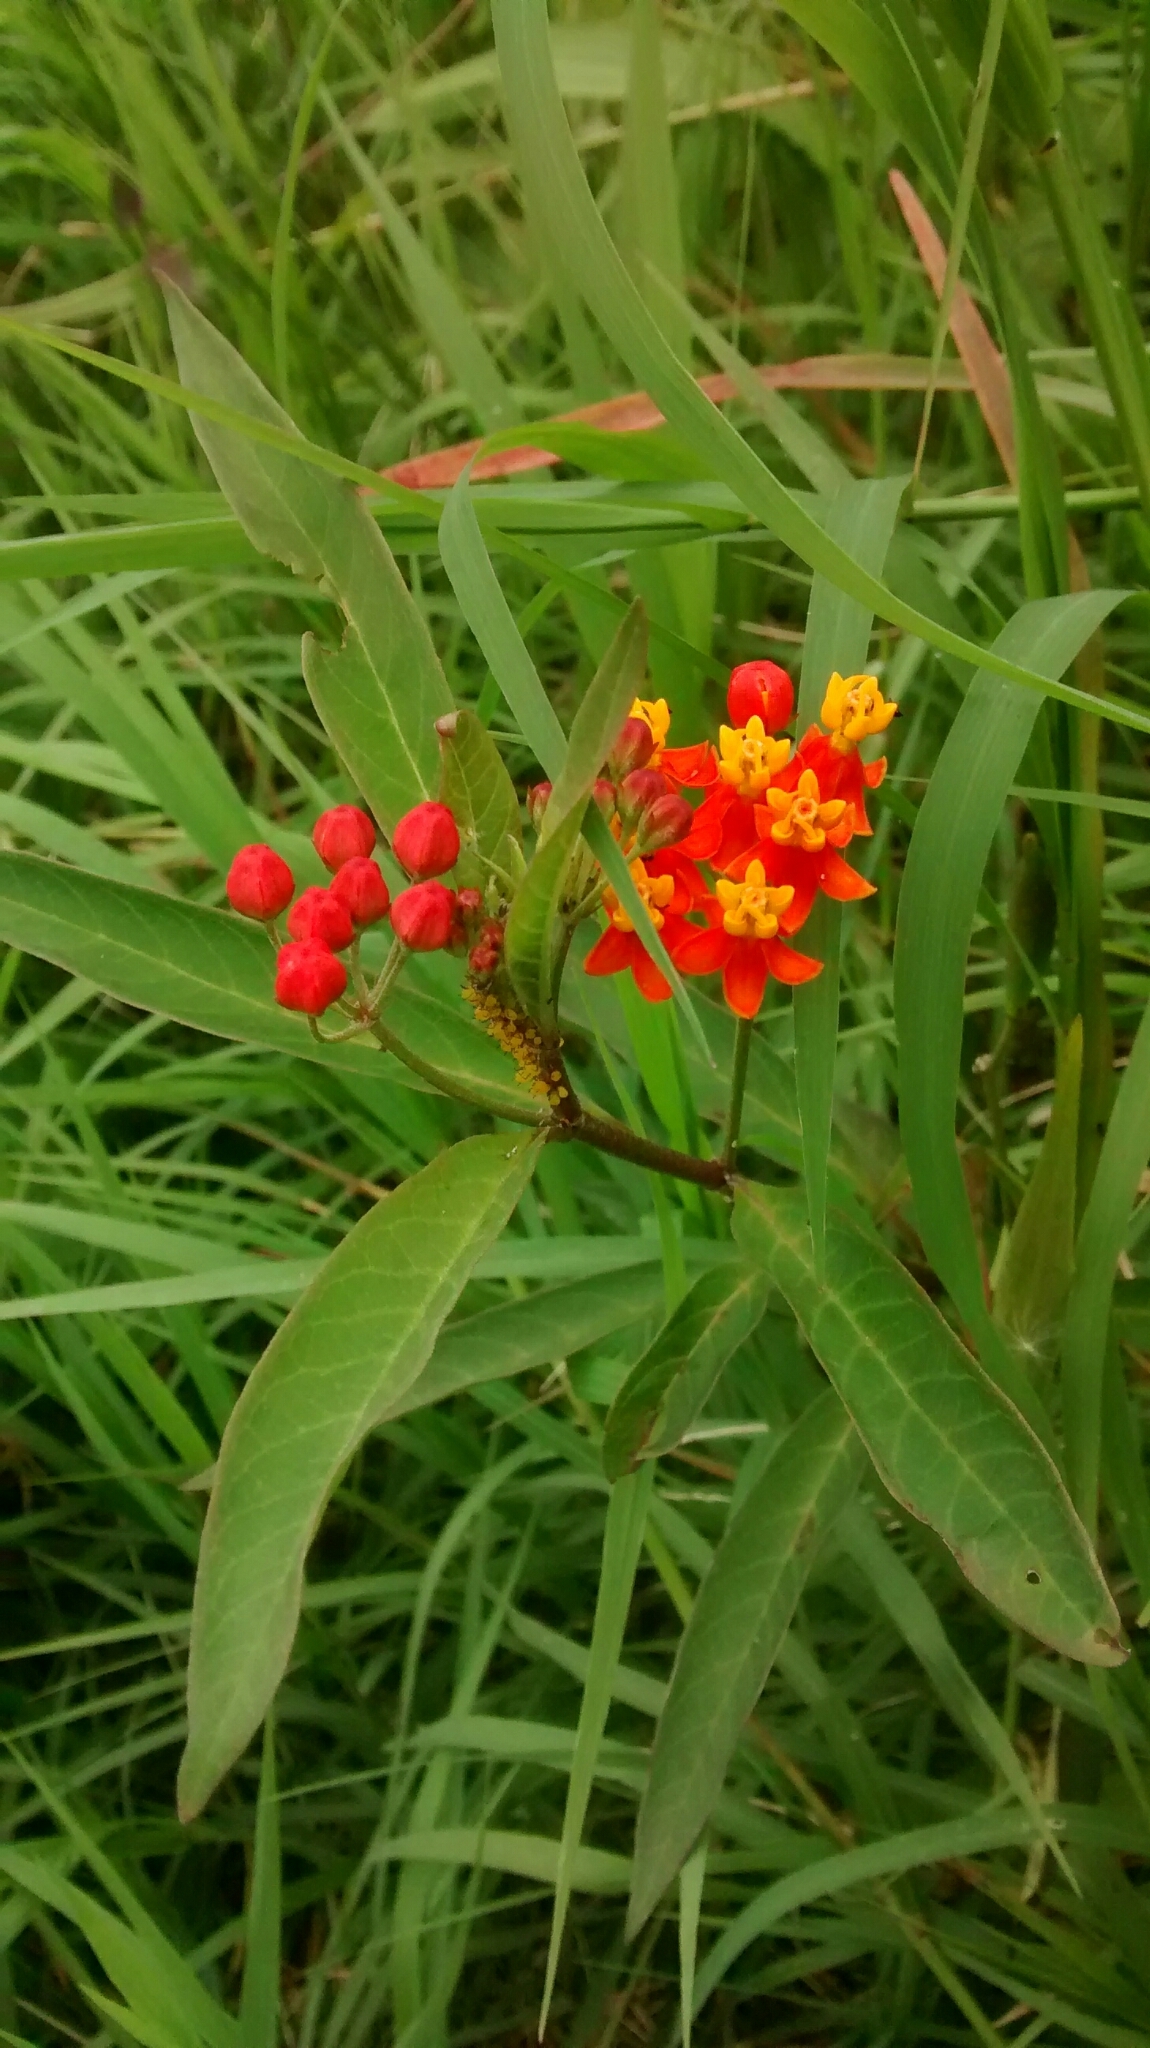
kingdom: Plantae
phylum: Tracheophyta
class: Magnoliopsida
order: Gentianales
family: Apocynaceae
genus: Asclepias
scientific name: Asclepias curassavica
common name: Bloodflower
